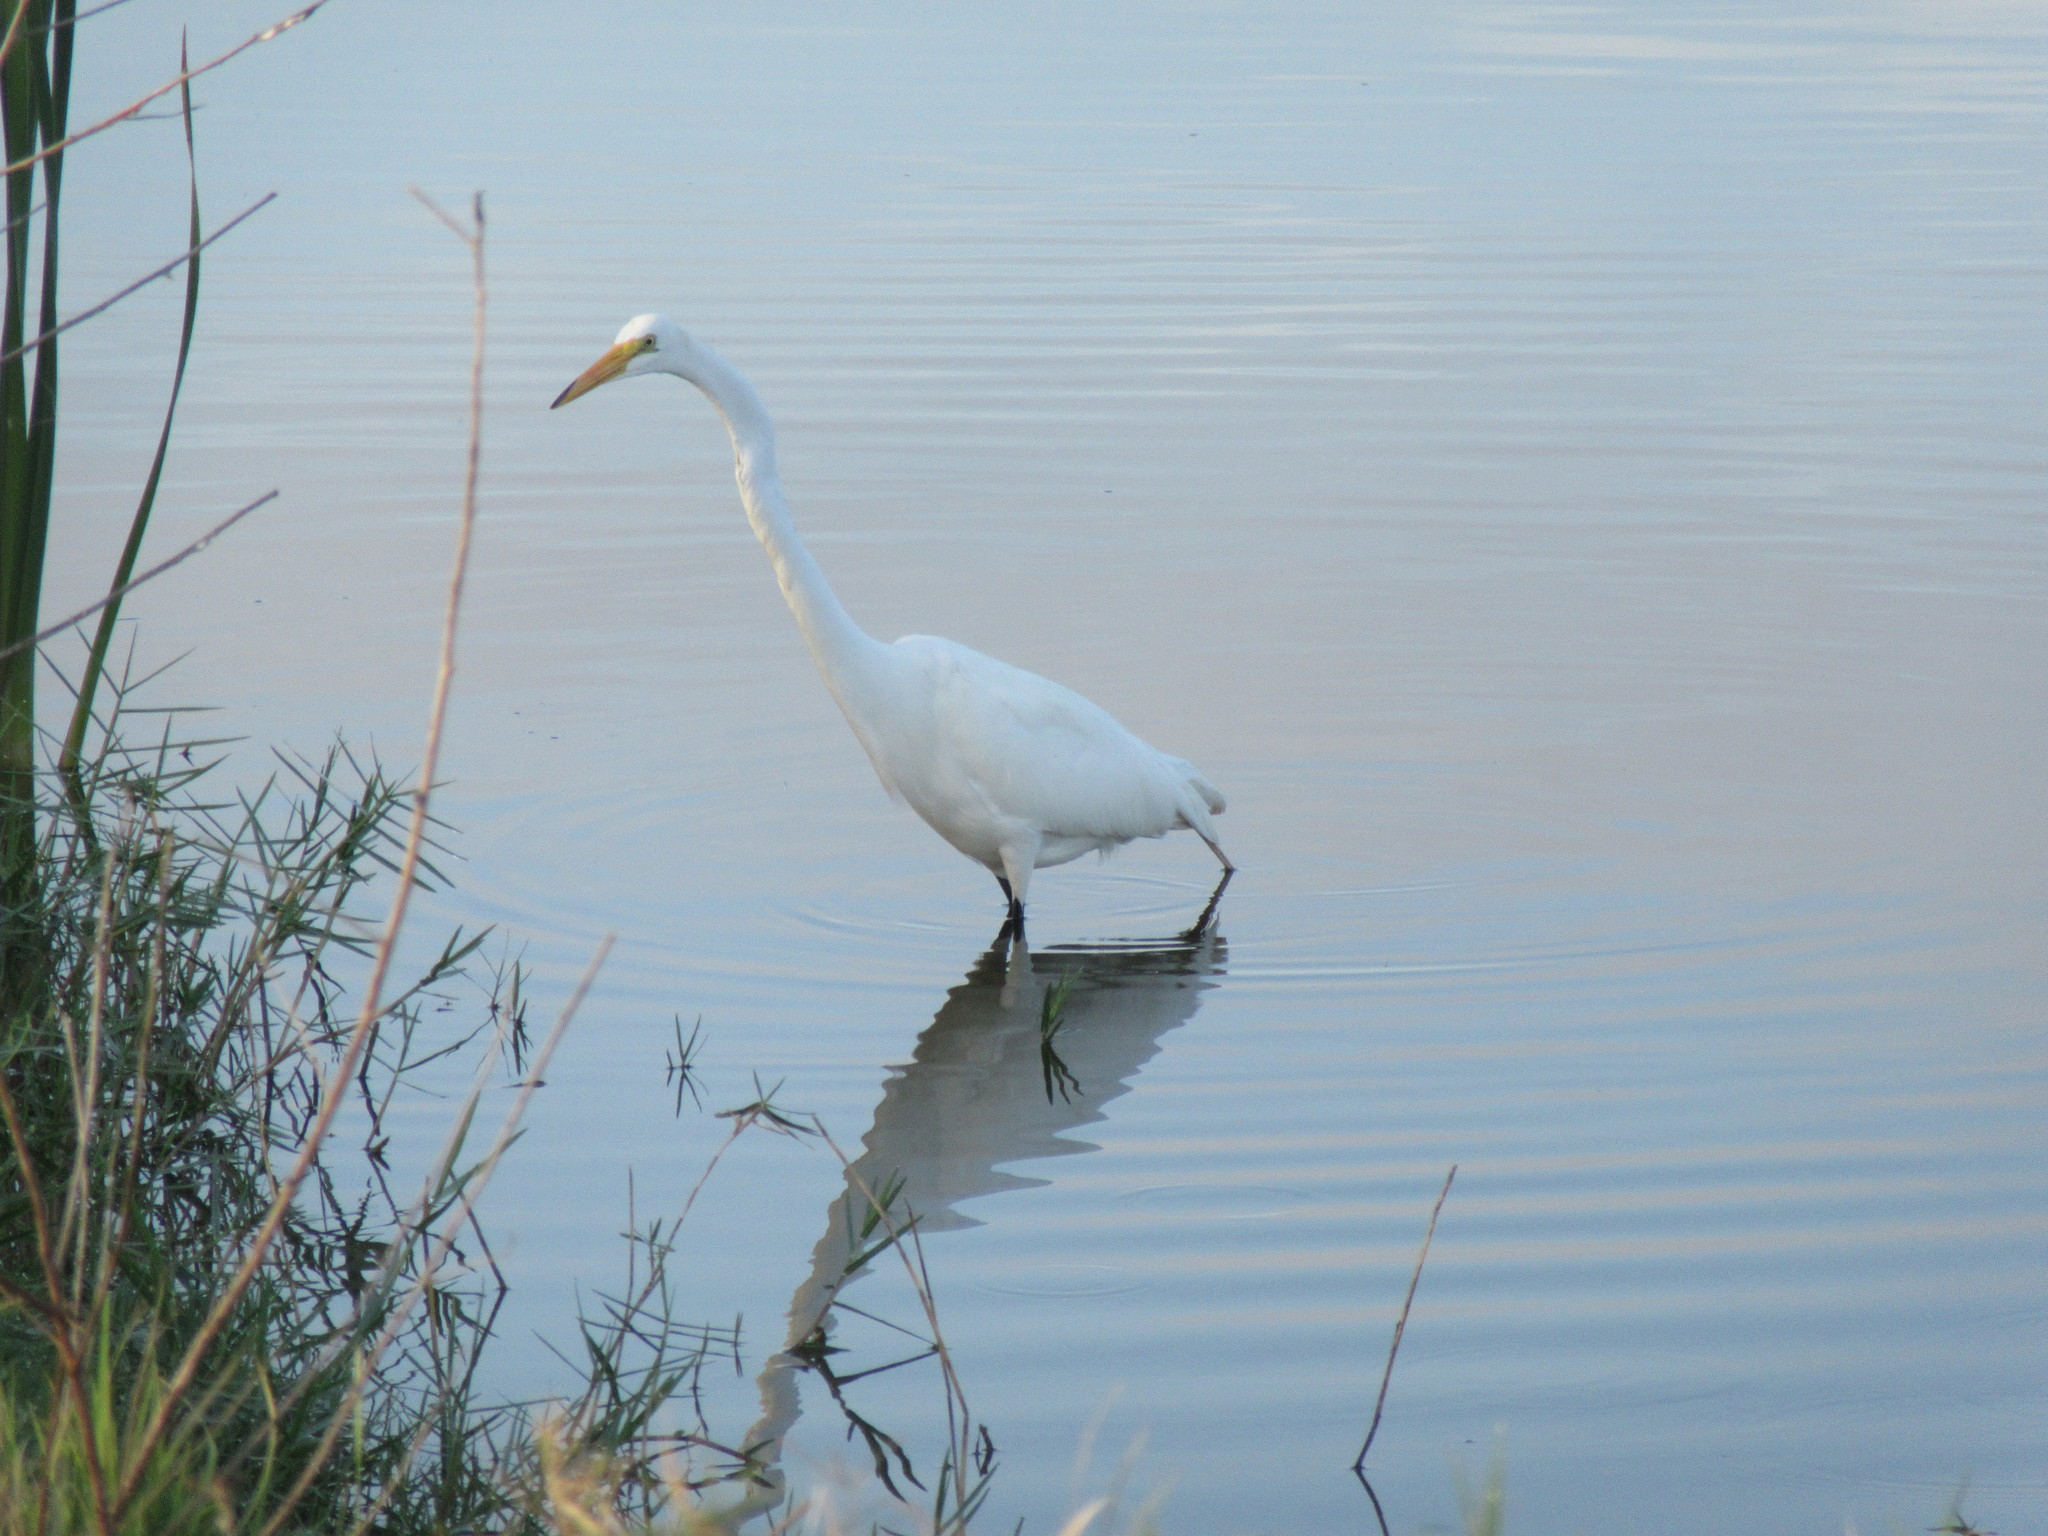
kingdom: Animalia
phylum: Chordata
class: Aves
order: Pelecaniformes
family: Ardeidae
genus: Ardea
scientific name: Ardea alba
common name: Great egret
